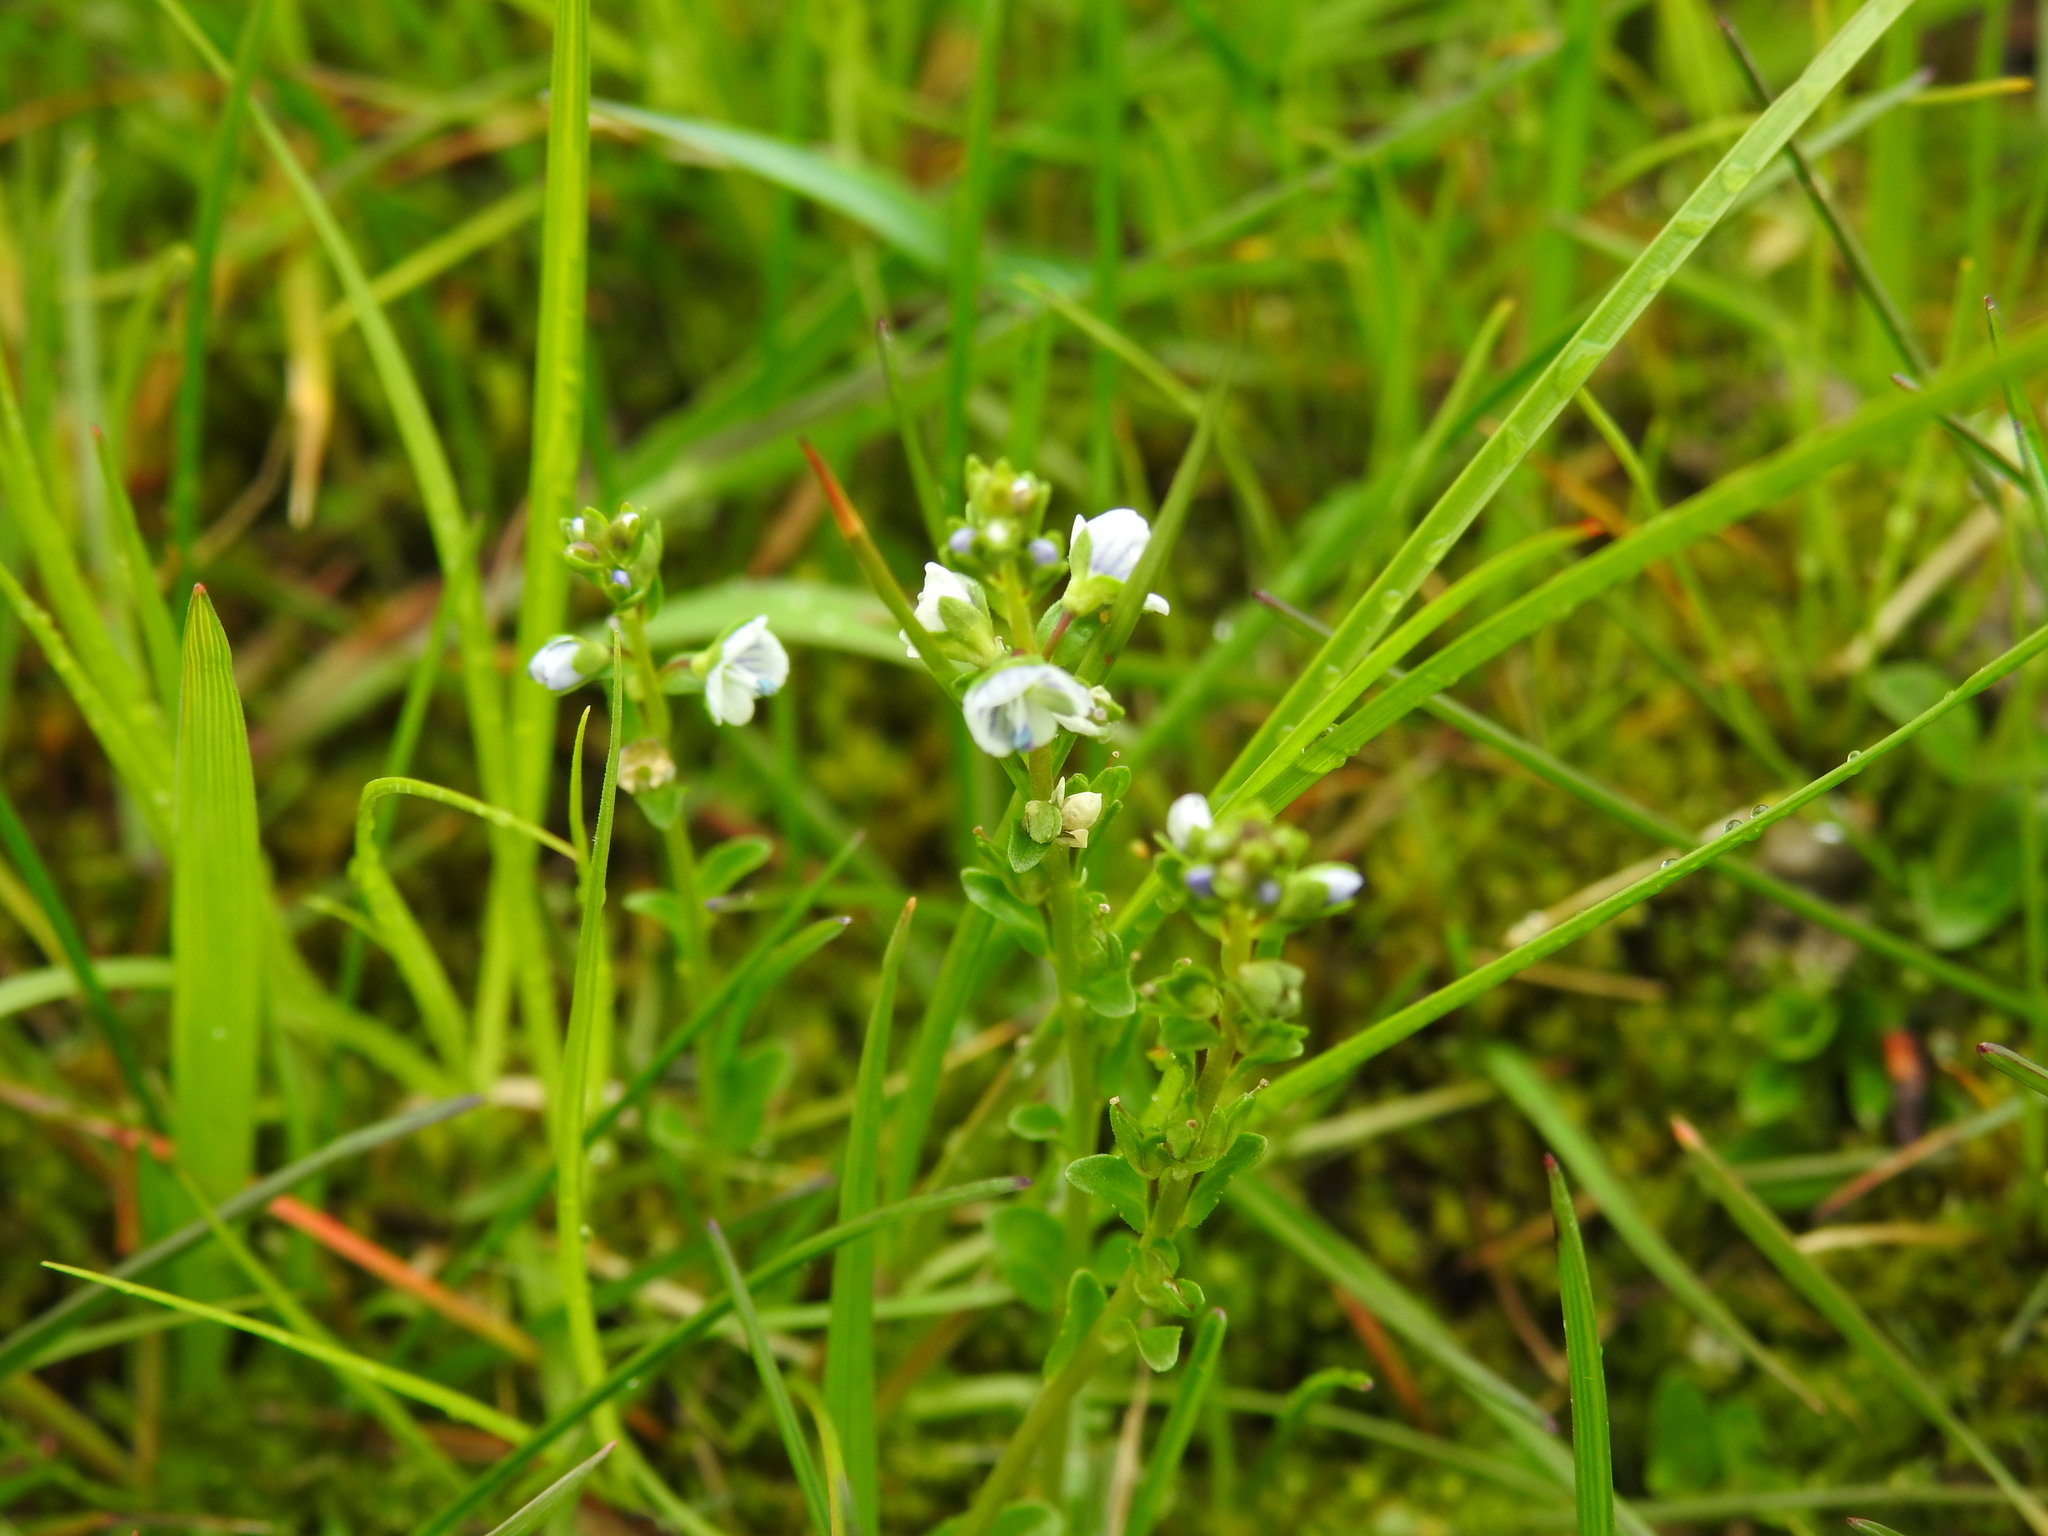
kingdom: Plantae
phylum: Tracheophyta
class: Magnoliopsida
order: Lamiales
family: Plantaginaceae
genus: Veronica
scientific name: Veronica serpyllifolia
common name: Thyme-leaved speedwell
